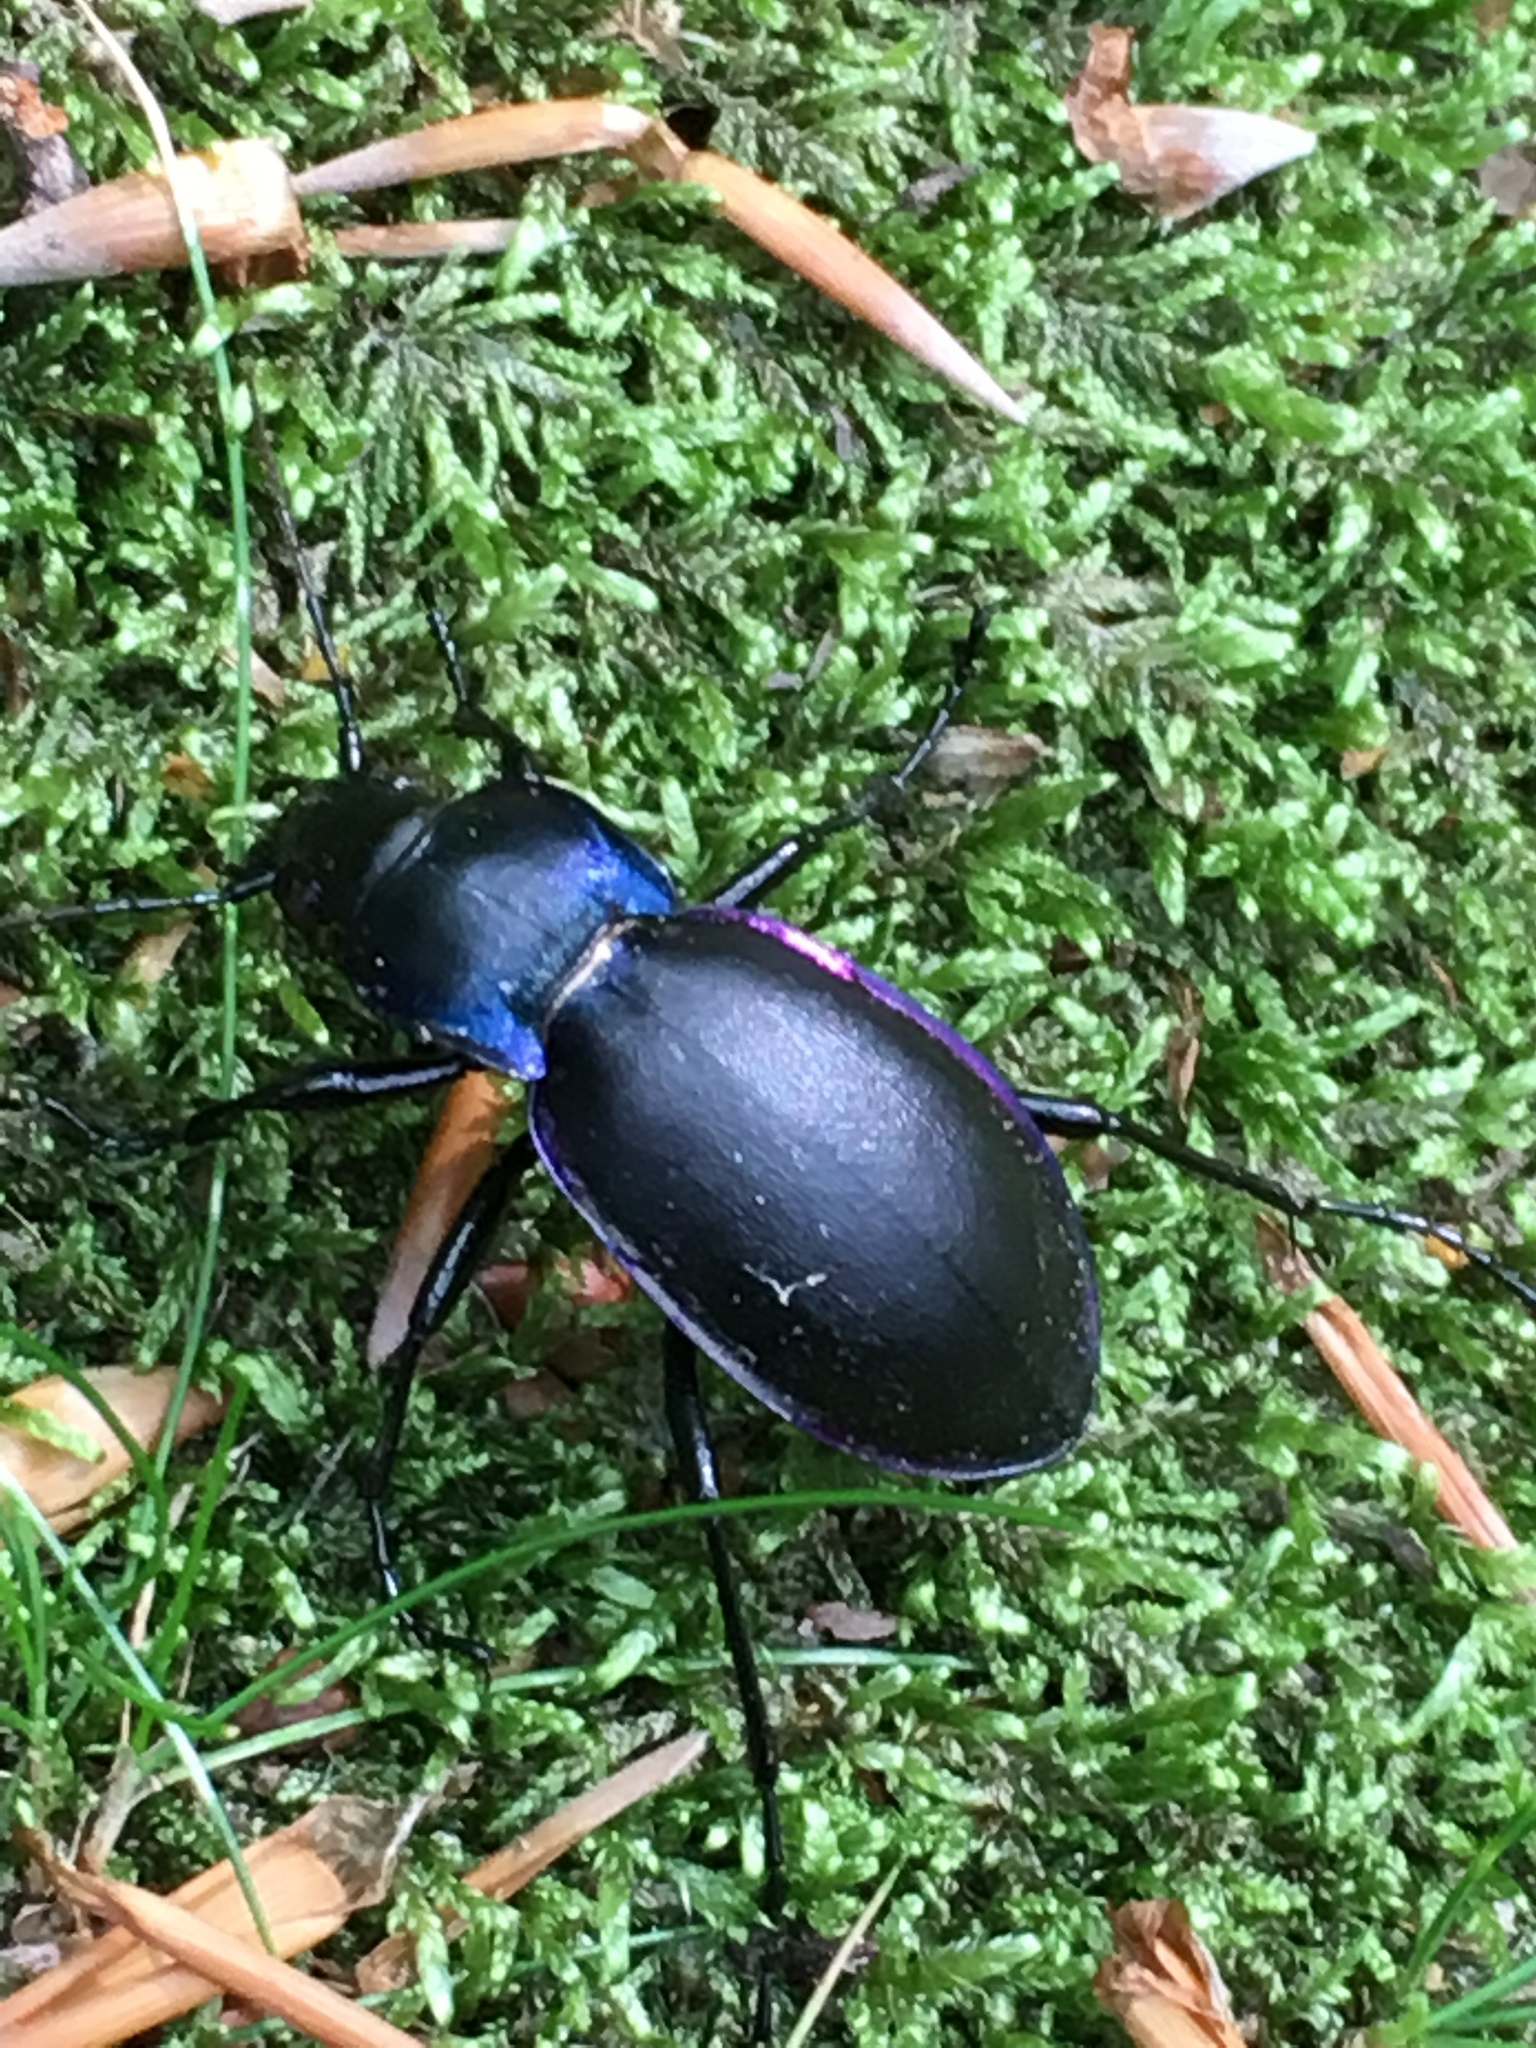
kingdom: Animalia
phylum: Arthropoda
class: Insecta
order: Coleoptera
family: Carabidae
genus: Carabus
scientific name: Carabus violaceus
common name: Violet ground beetle
